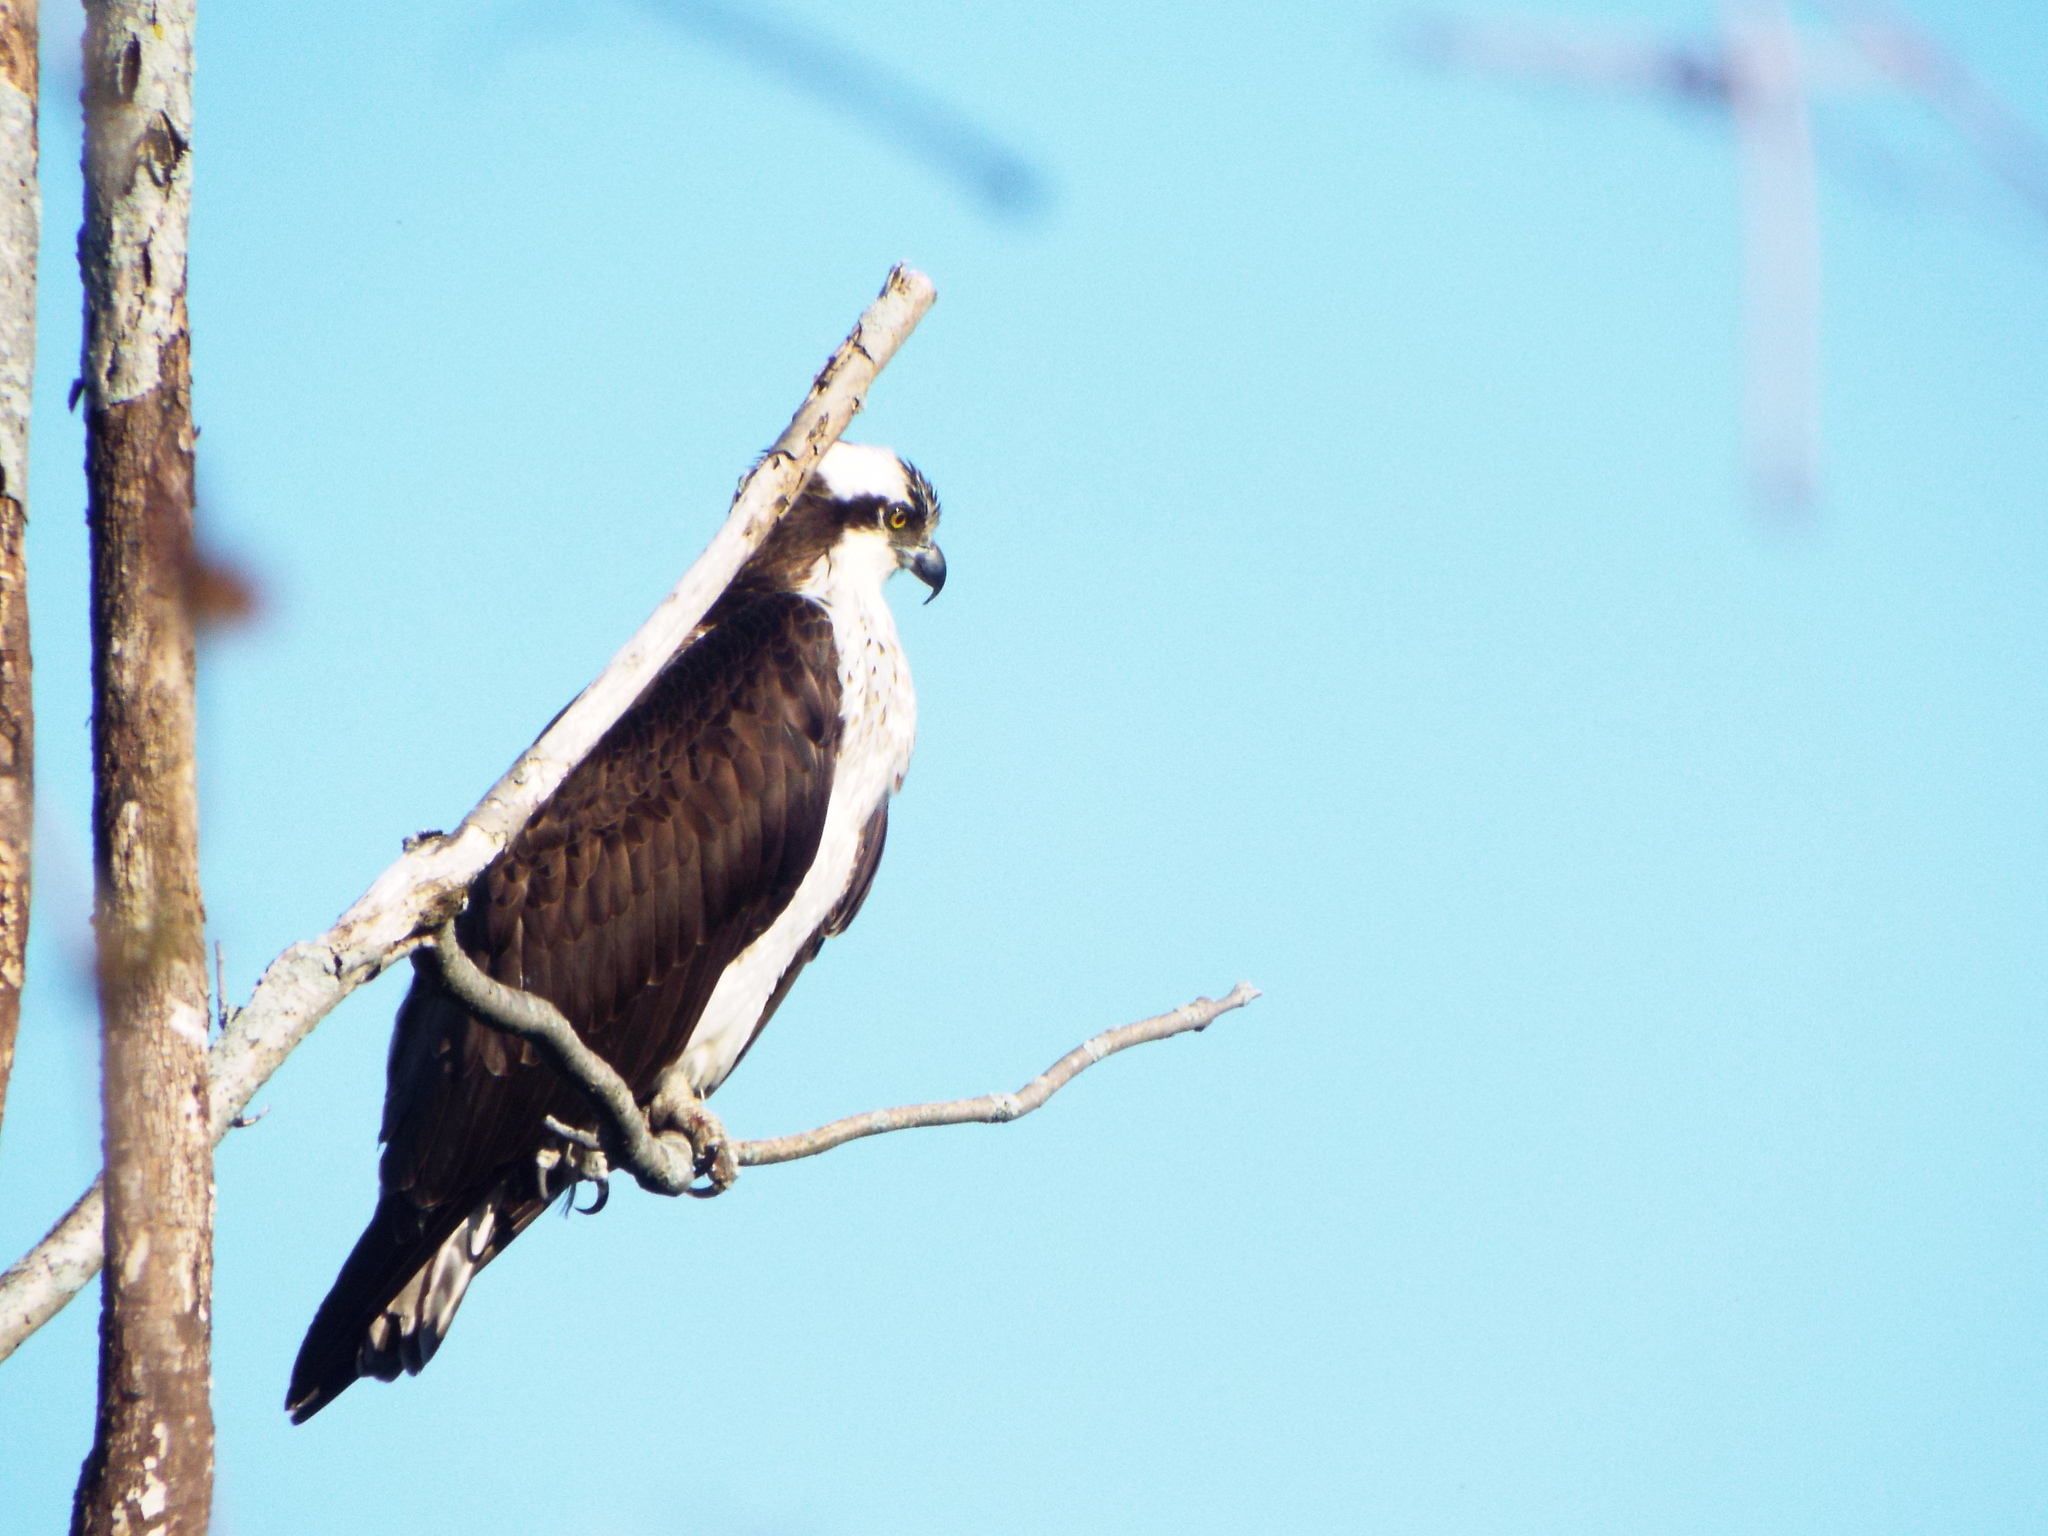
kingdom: Animalia
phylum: Chordata
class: Aves
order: Accipitriformes
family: Pandionidae
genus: Pandion
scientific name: Pandion haliaetus
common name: Osprey
